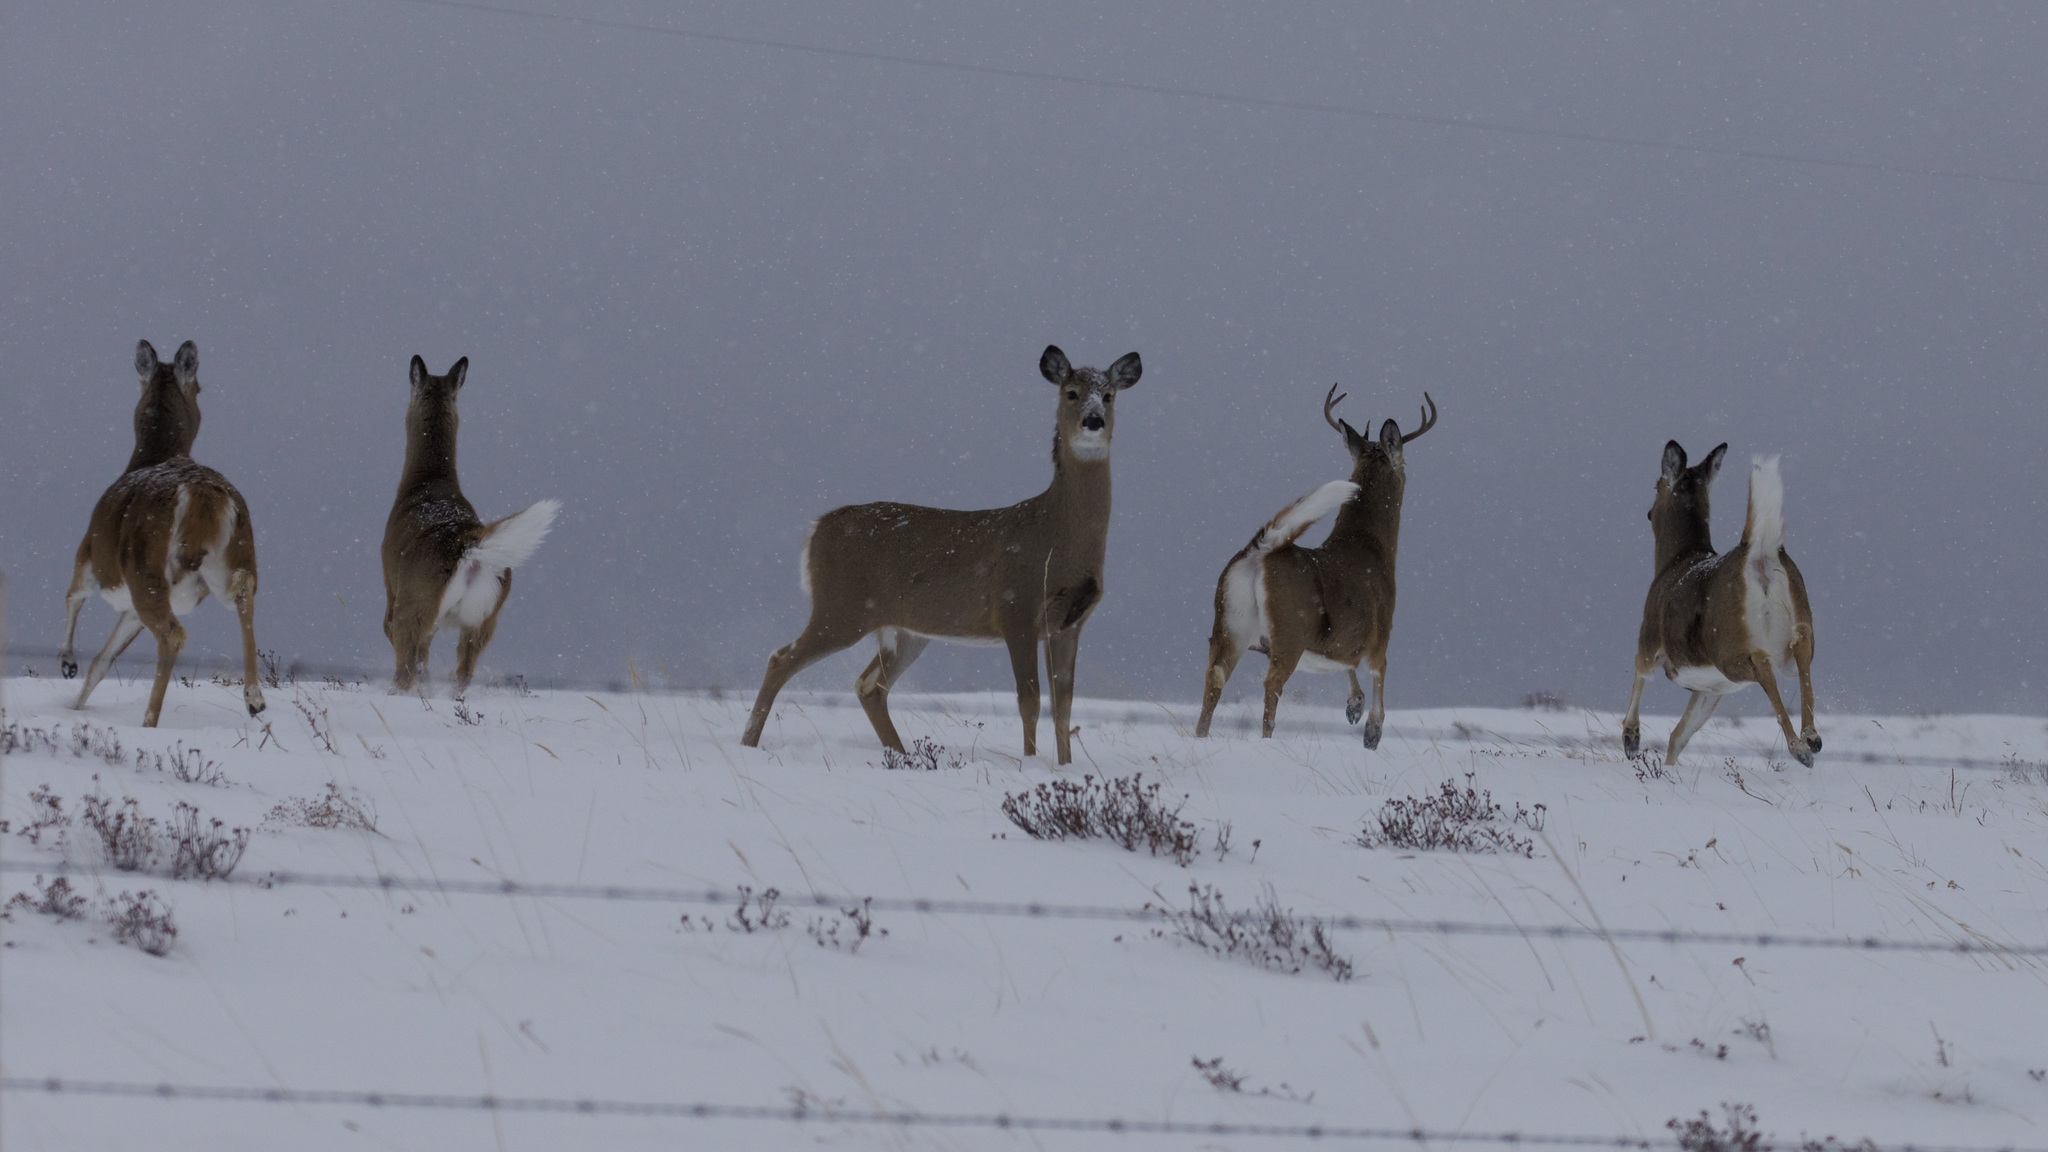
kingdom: Animalia
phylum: Chordata
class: Mammalia
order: Artiodactyla
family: Cervidae
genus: Odocoileus
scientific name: Odocoileus virginianus
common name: White-tailed deer
